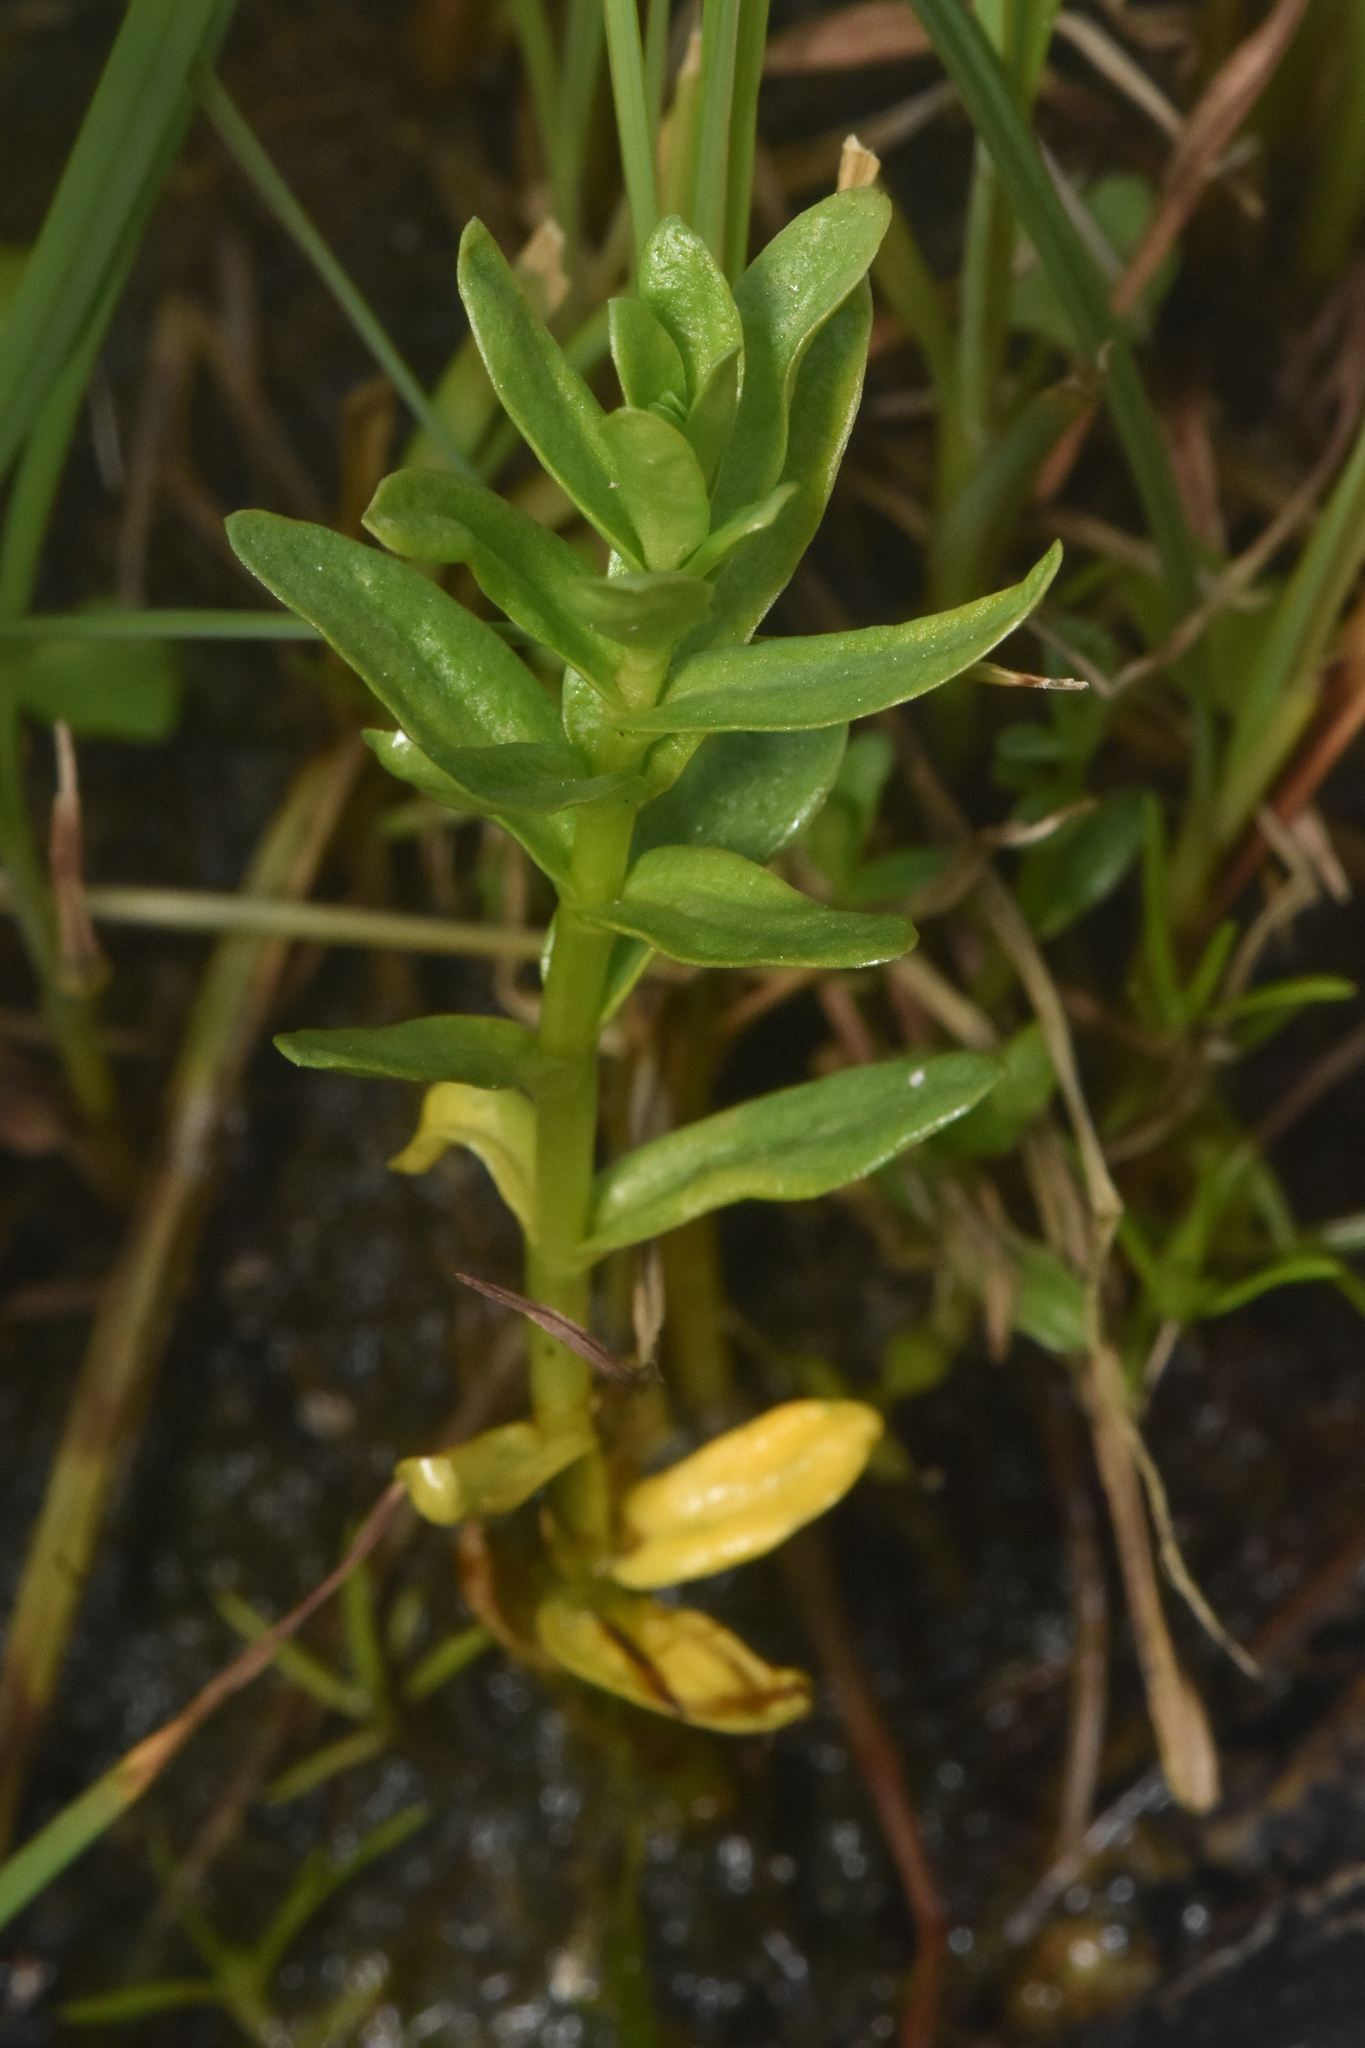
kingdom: Plantae
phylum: Tracheophyta
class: Magnoliopsida
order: Ericales
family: Primulaceae
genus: Lysimachia
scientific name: Lysimachia maritima
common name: Sea milkwort
